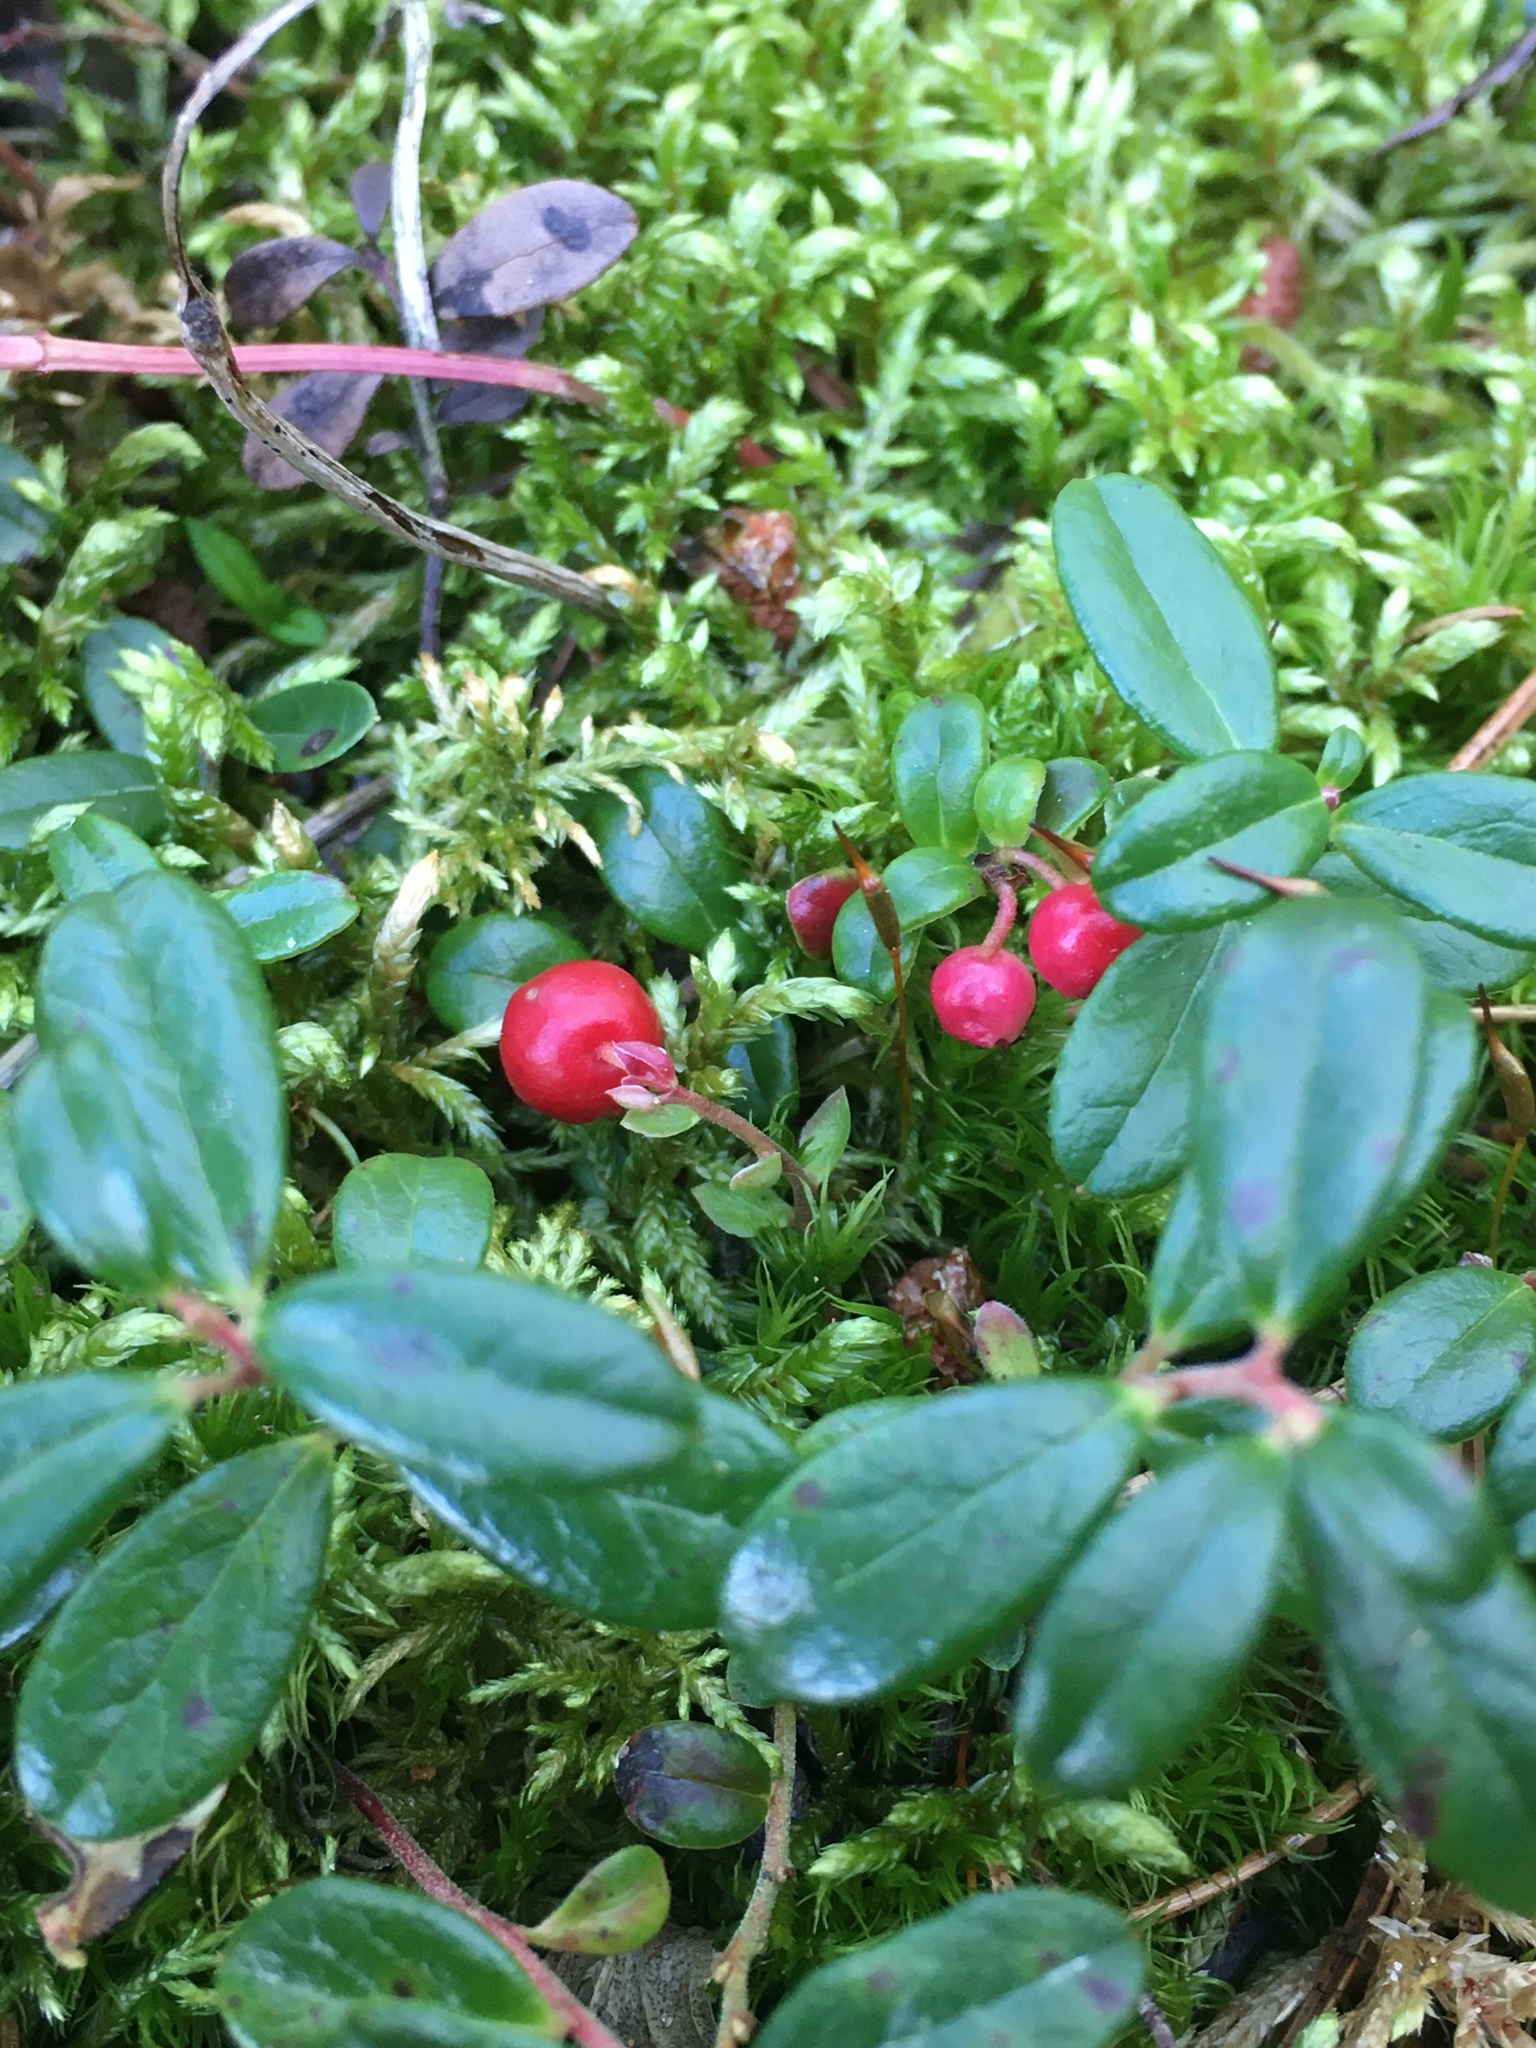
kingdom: Plantae
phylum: Tracheophyta
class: Magnoliopsida
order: Ericales
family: Ericaceae
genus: Vaccinium
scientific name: Vaccinium vitis-idaea
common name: Cowberry
